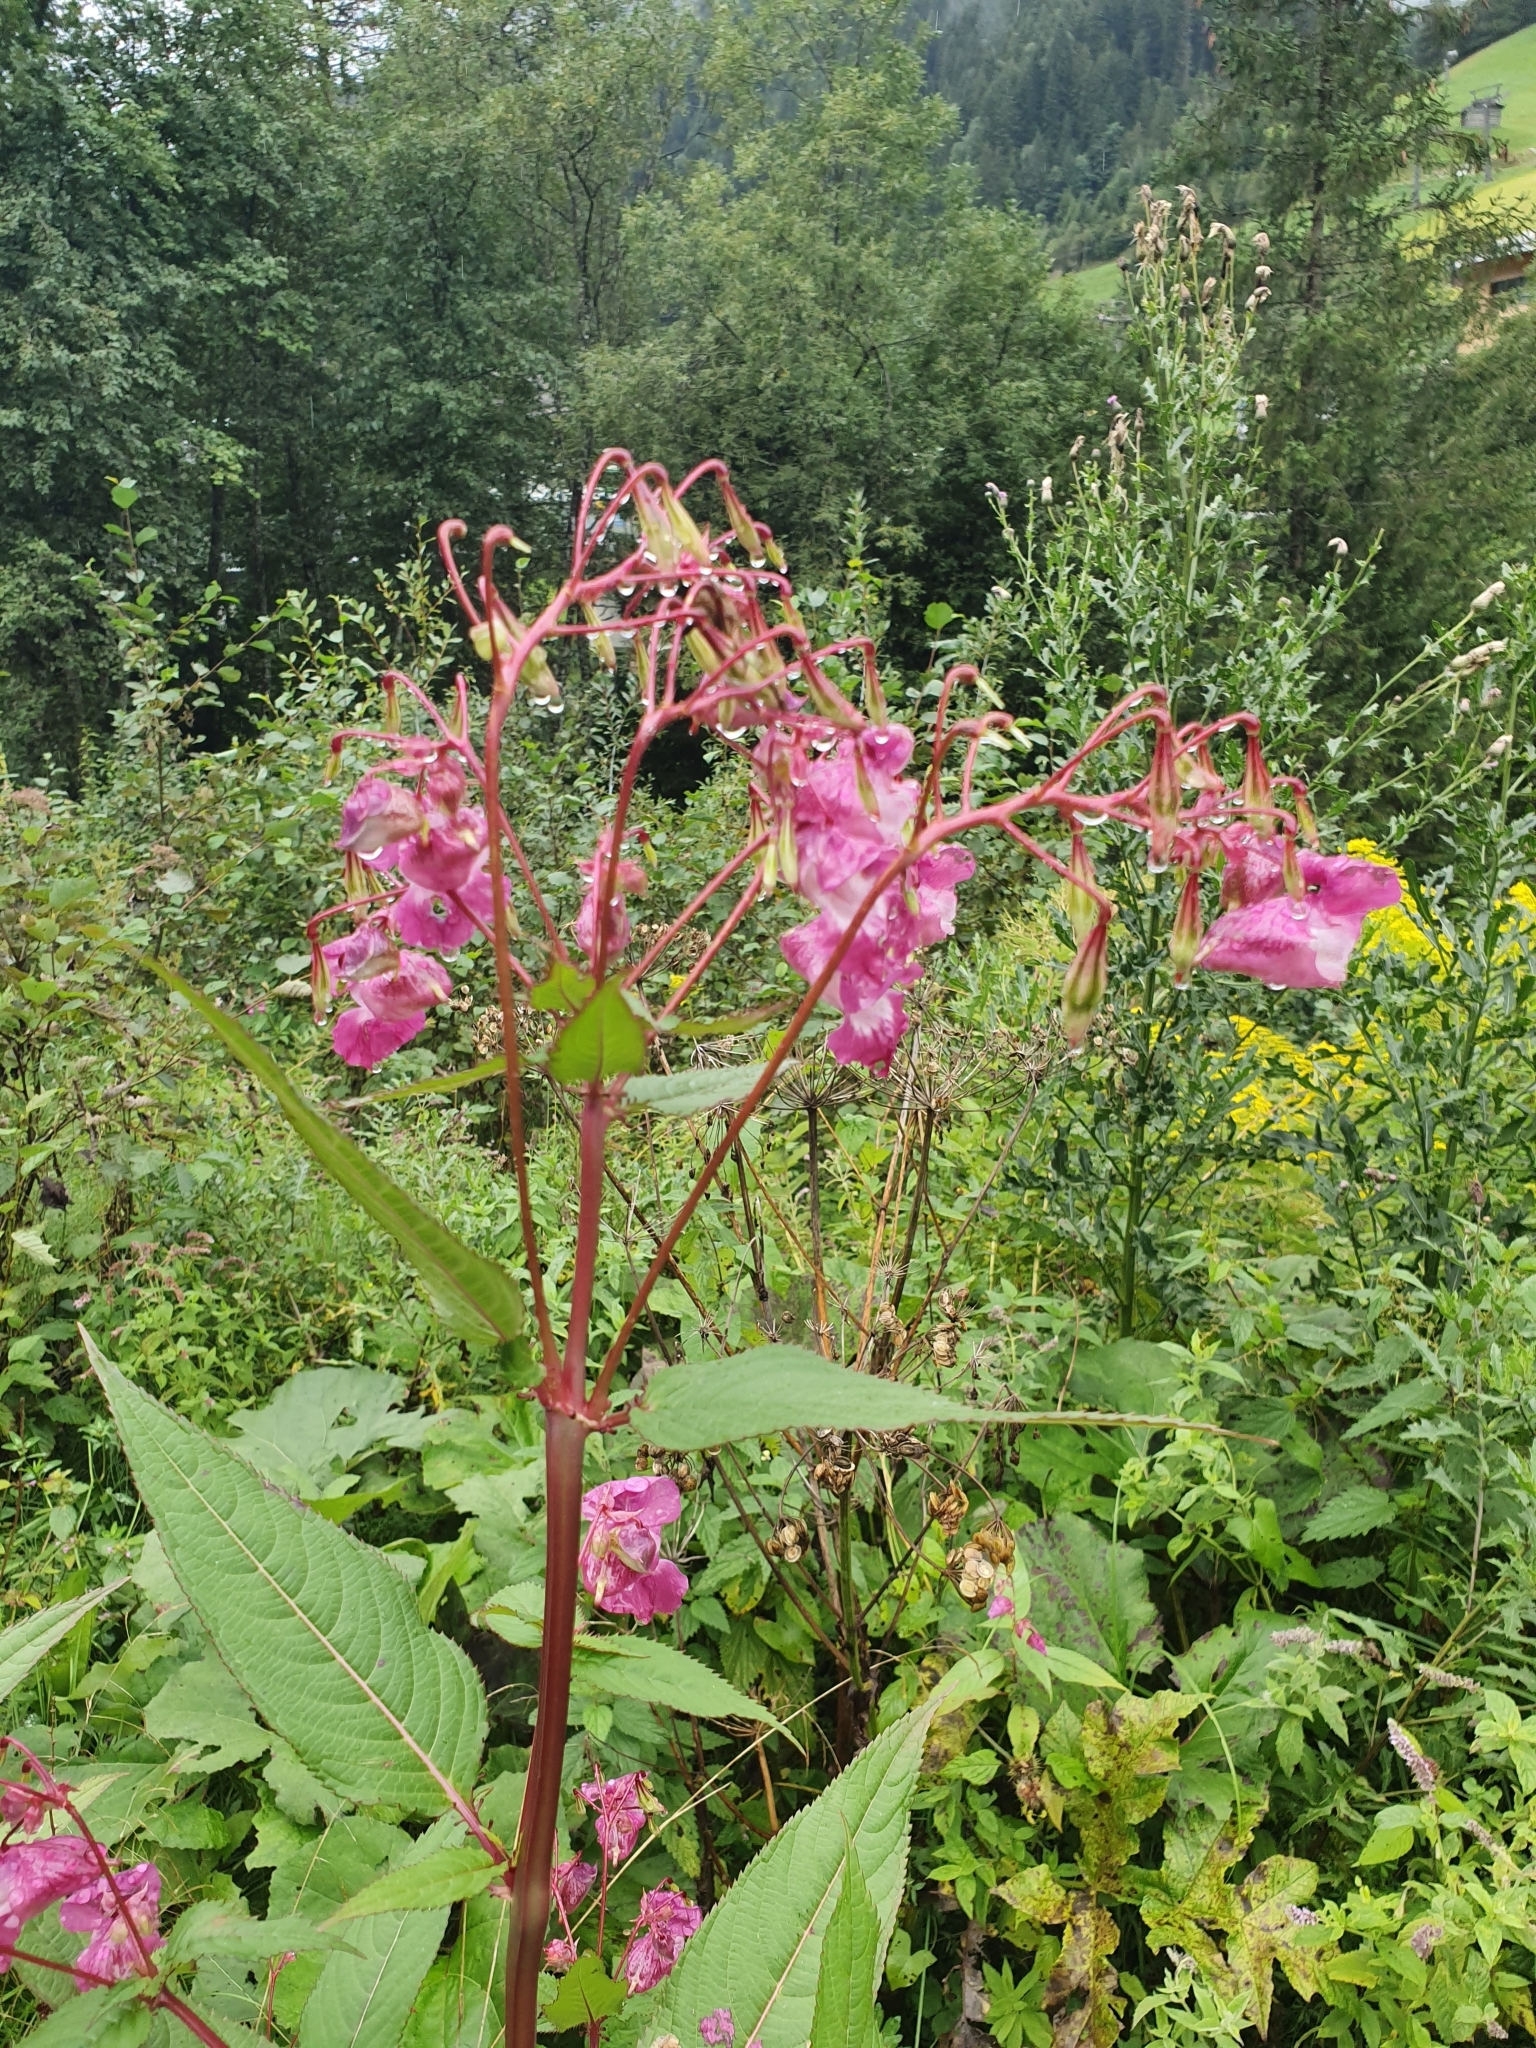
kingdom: Plantae
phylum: Tracheophyta
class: Magnoliopsida
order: Ericales
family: Balsaminaceae
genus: Impatiens
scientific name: Impatiens glandulifera
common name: Himalayan balsam
